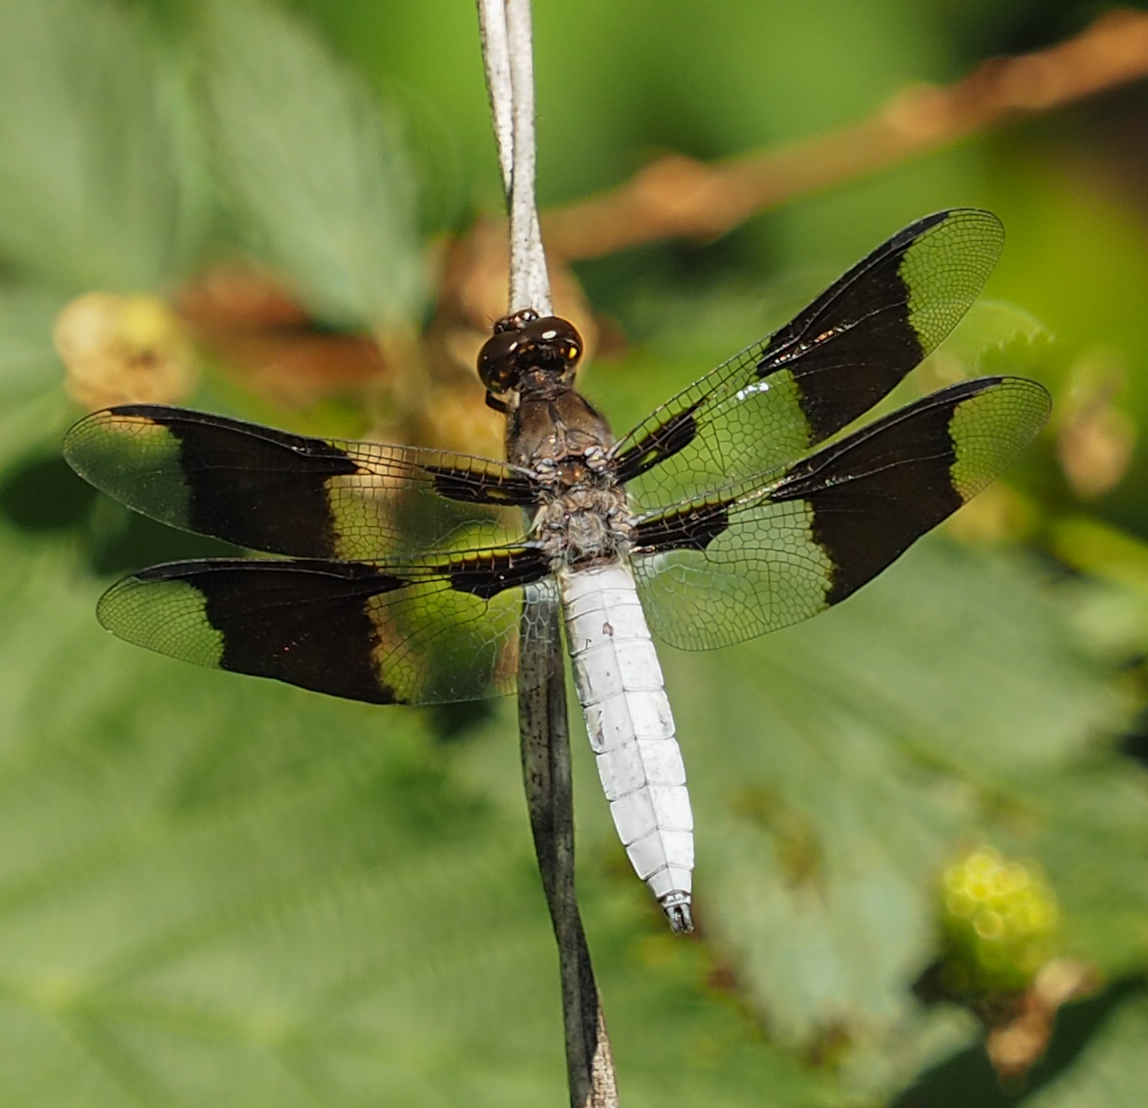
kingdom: Animalia
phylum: Arthropoda
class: Insecta
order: Odonata
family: Libellulidae
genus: Plathemis
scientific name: Plathemis lydia
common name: Common whitetail
